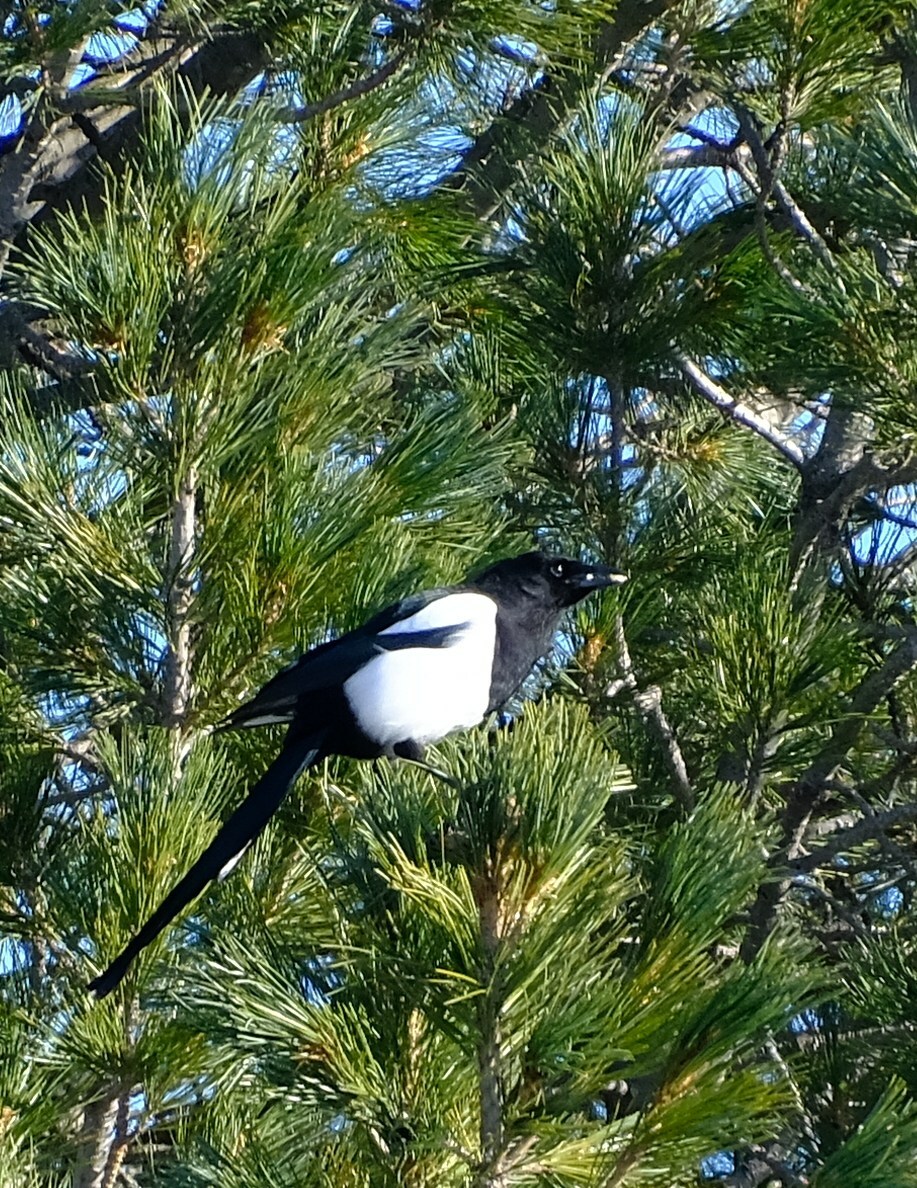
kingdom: Animalia
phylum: Chordata
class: Aves
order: Passeriformes
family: Corvidae
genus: Pica
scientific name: Pica pica
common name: Eurasian magpie
